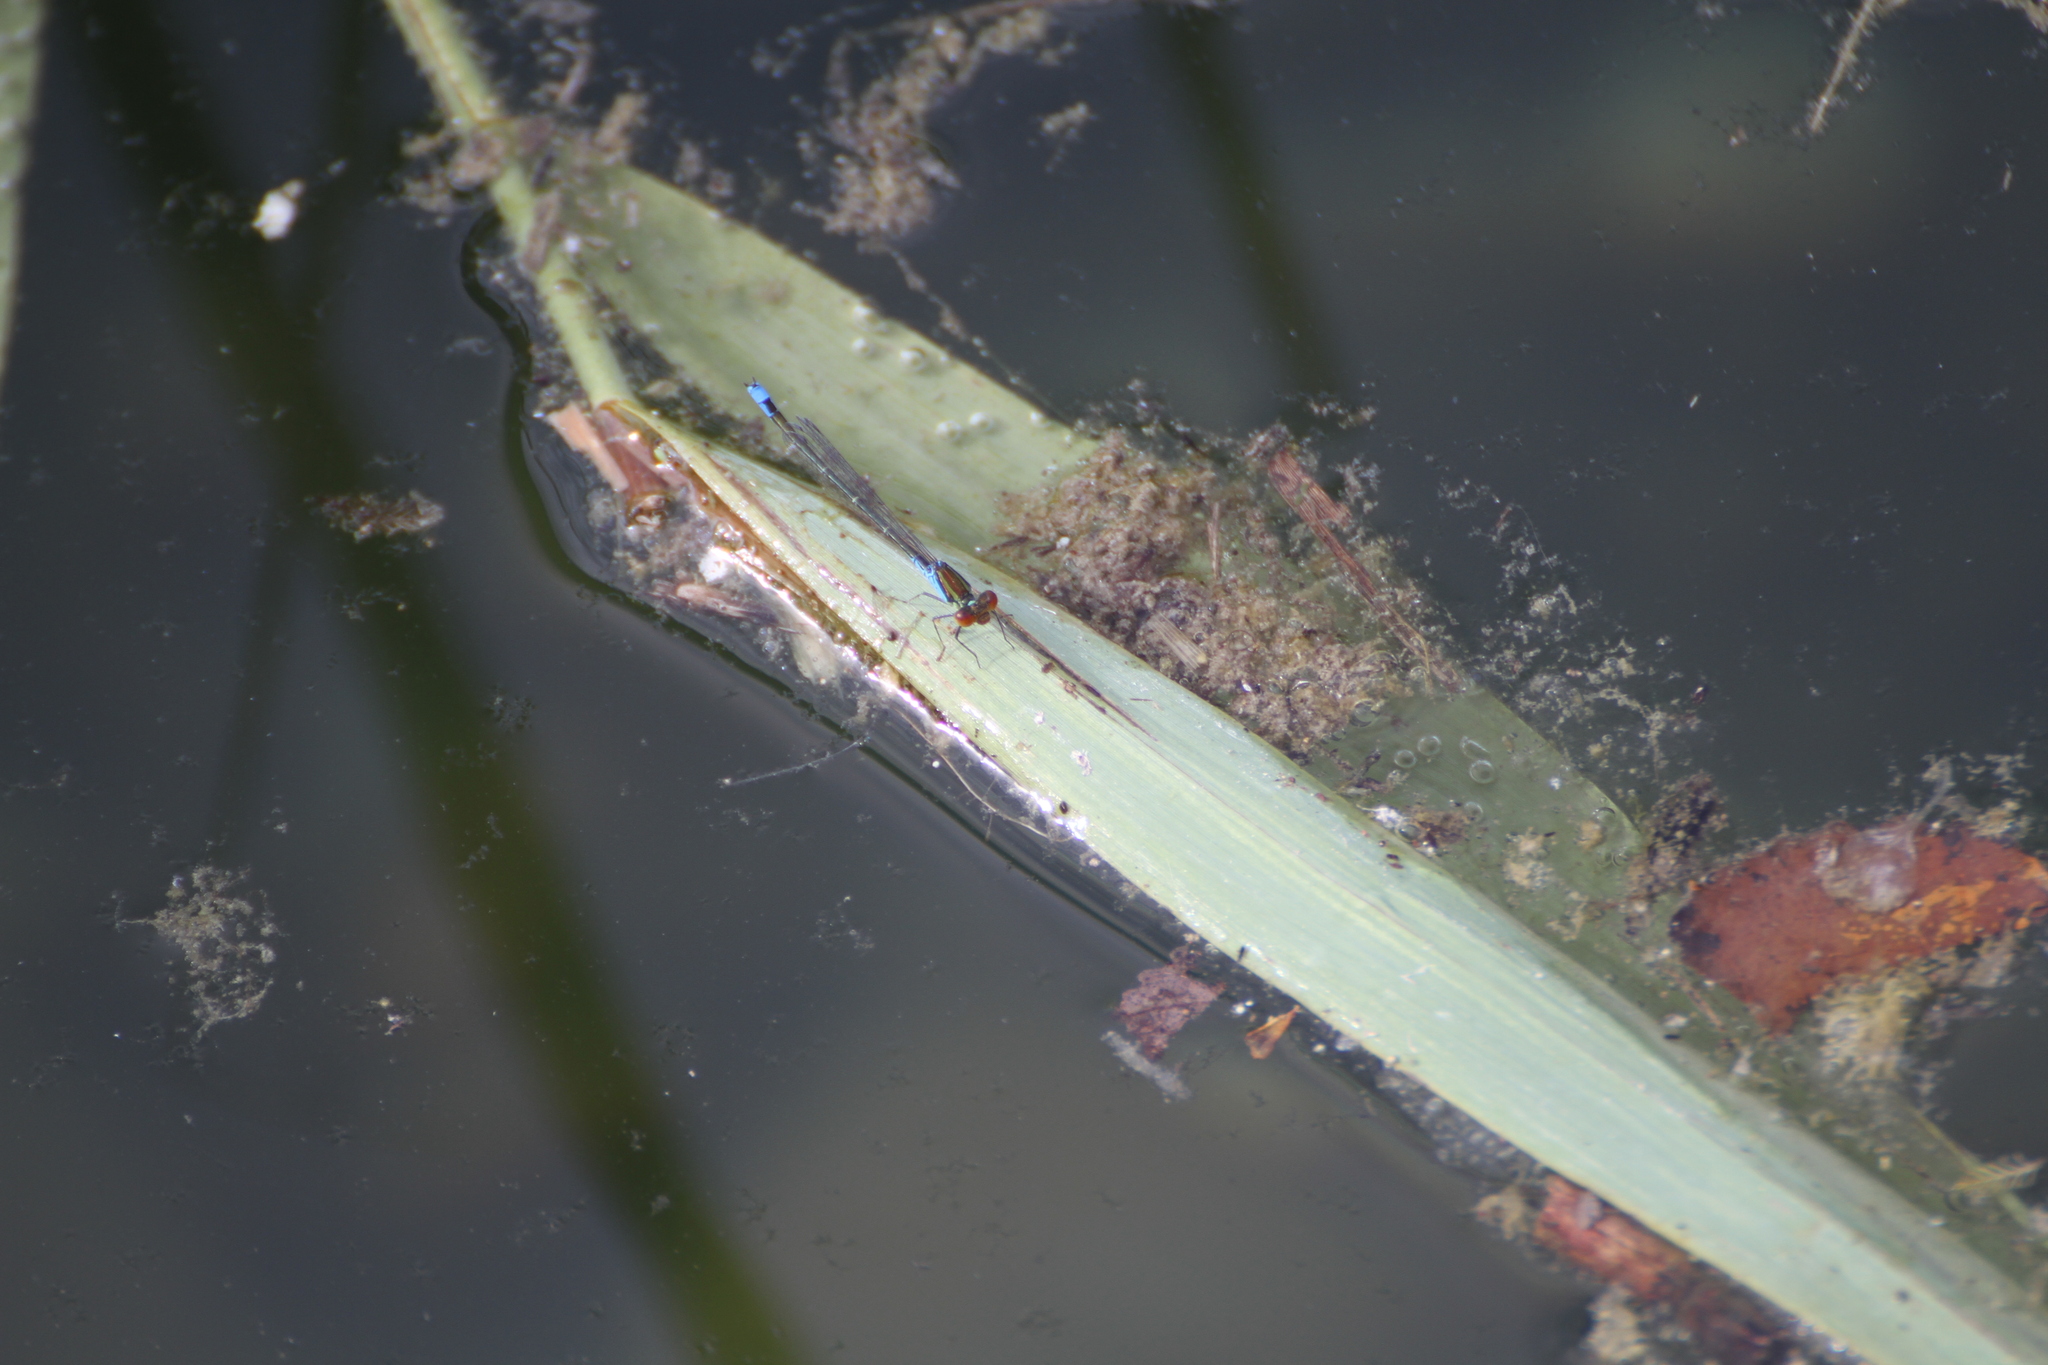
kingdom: Animalia
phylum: Arthropoda
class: Insecta
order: Odonata
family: Coenagrionidae
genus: Erythromma
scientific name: Erythromma viridulum
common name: Small red-eyed damselfly
